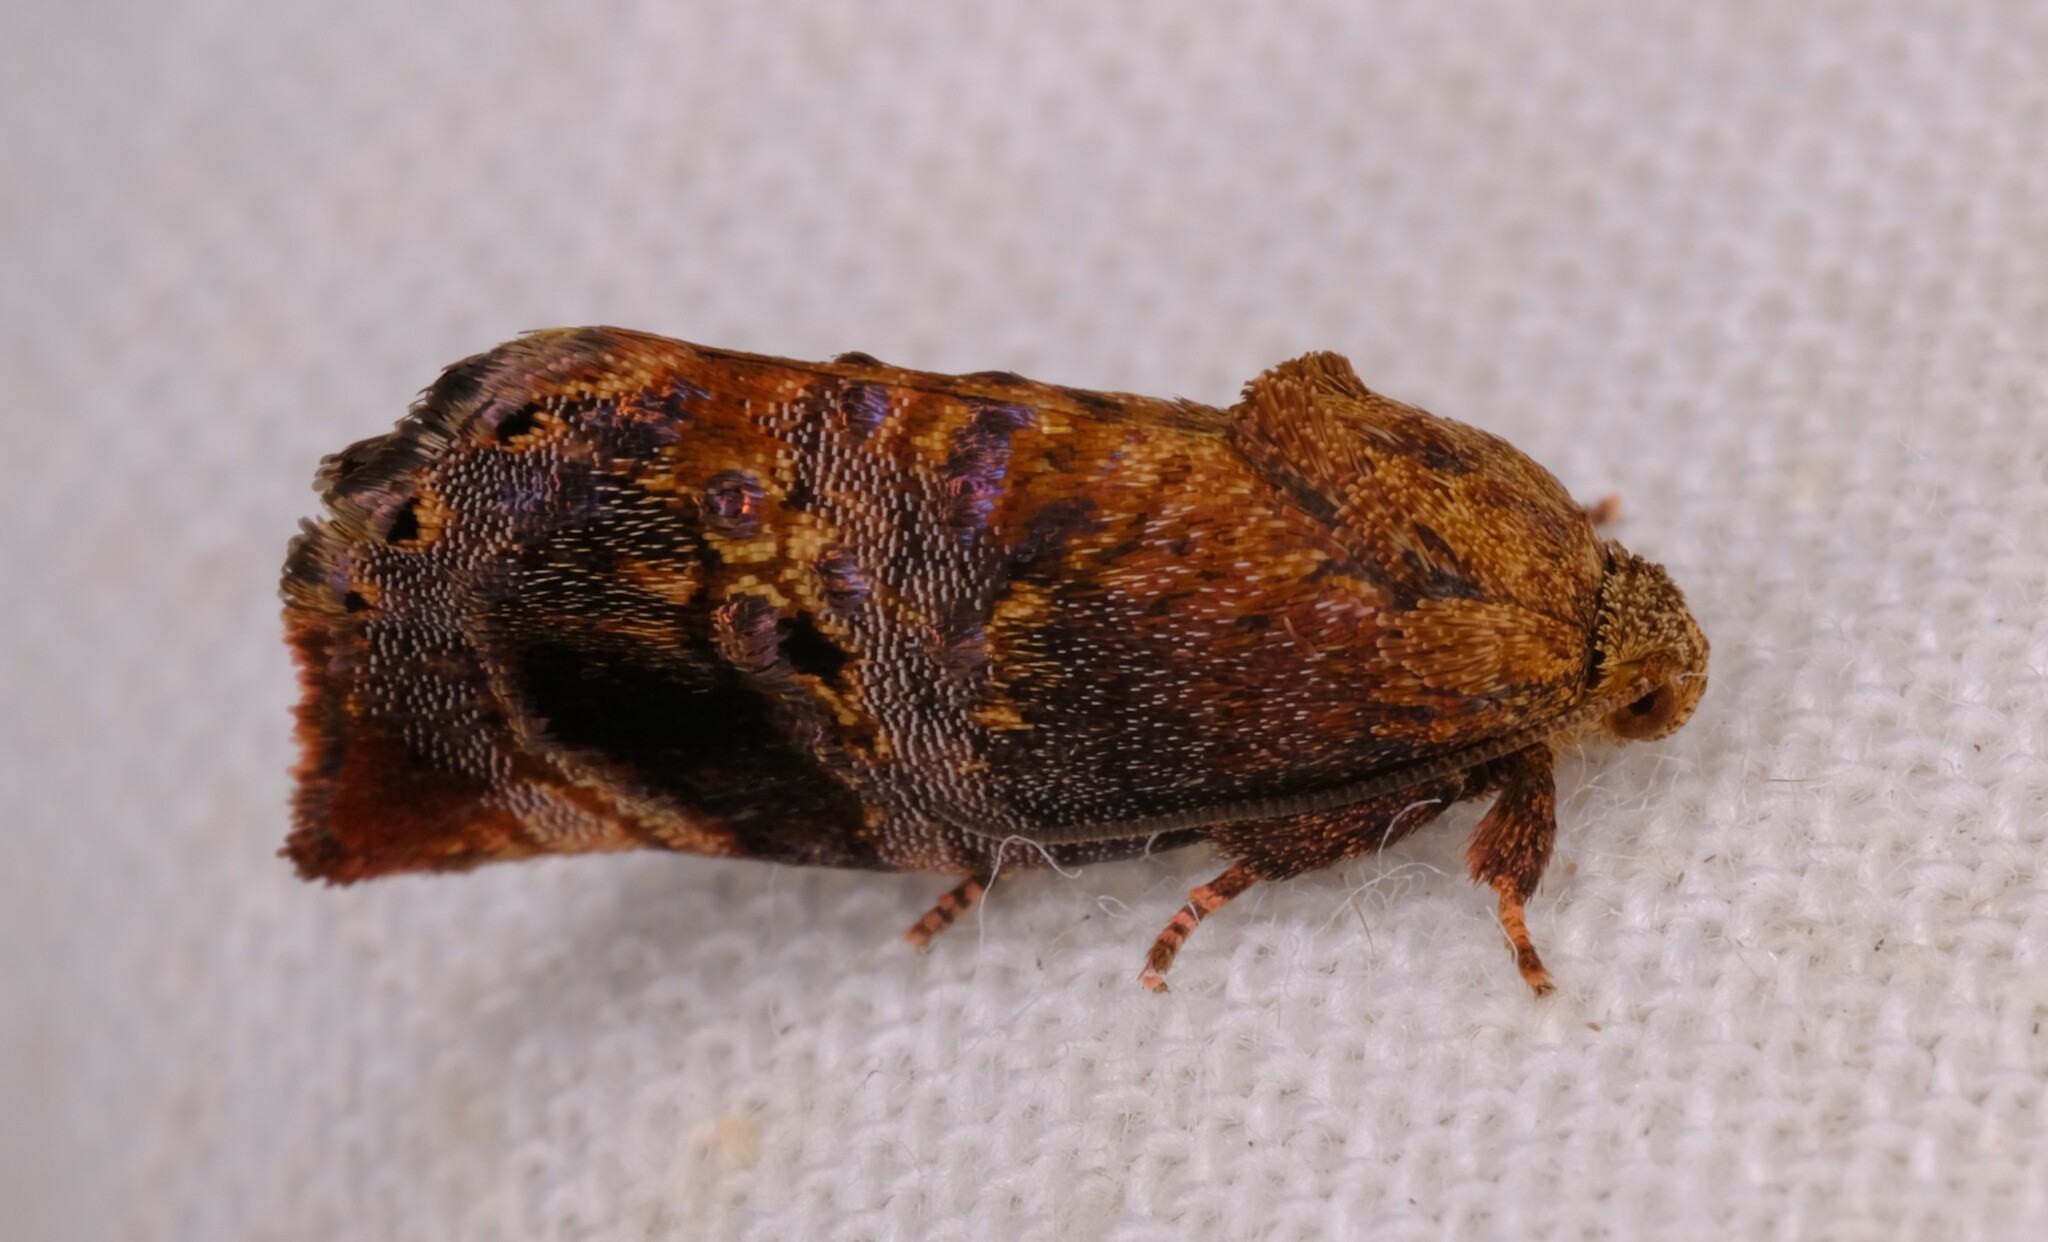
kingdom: Animalia
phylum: Arthropoda
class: Insecta
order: Lepidoptera
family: Depressariidae
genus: Peritropha
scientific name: Peritropha oligodrachma
